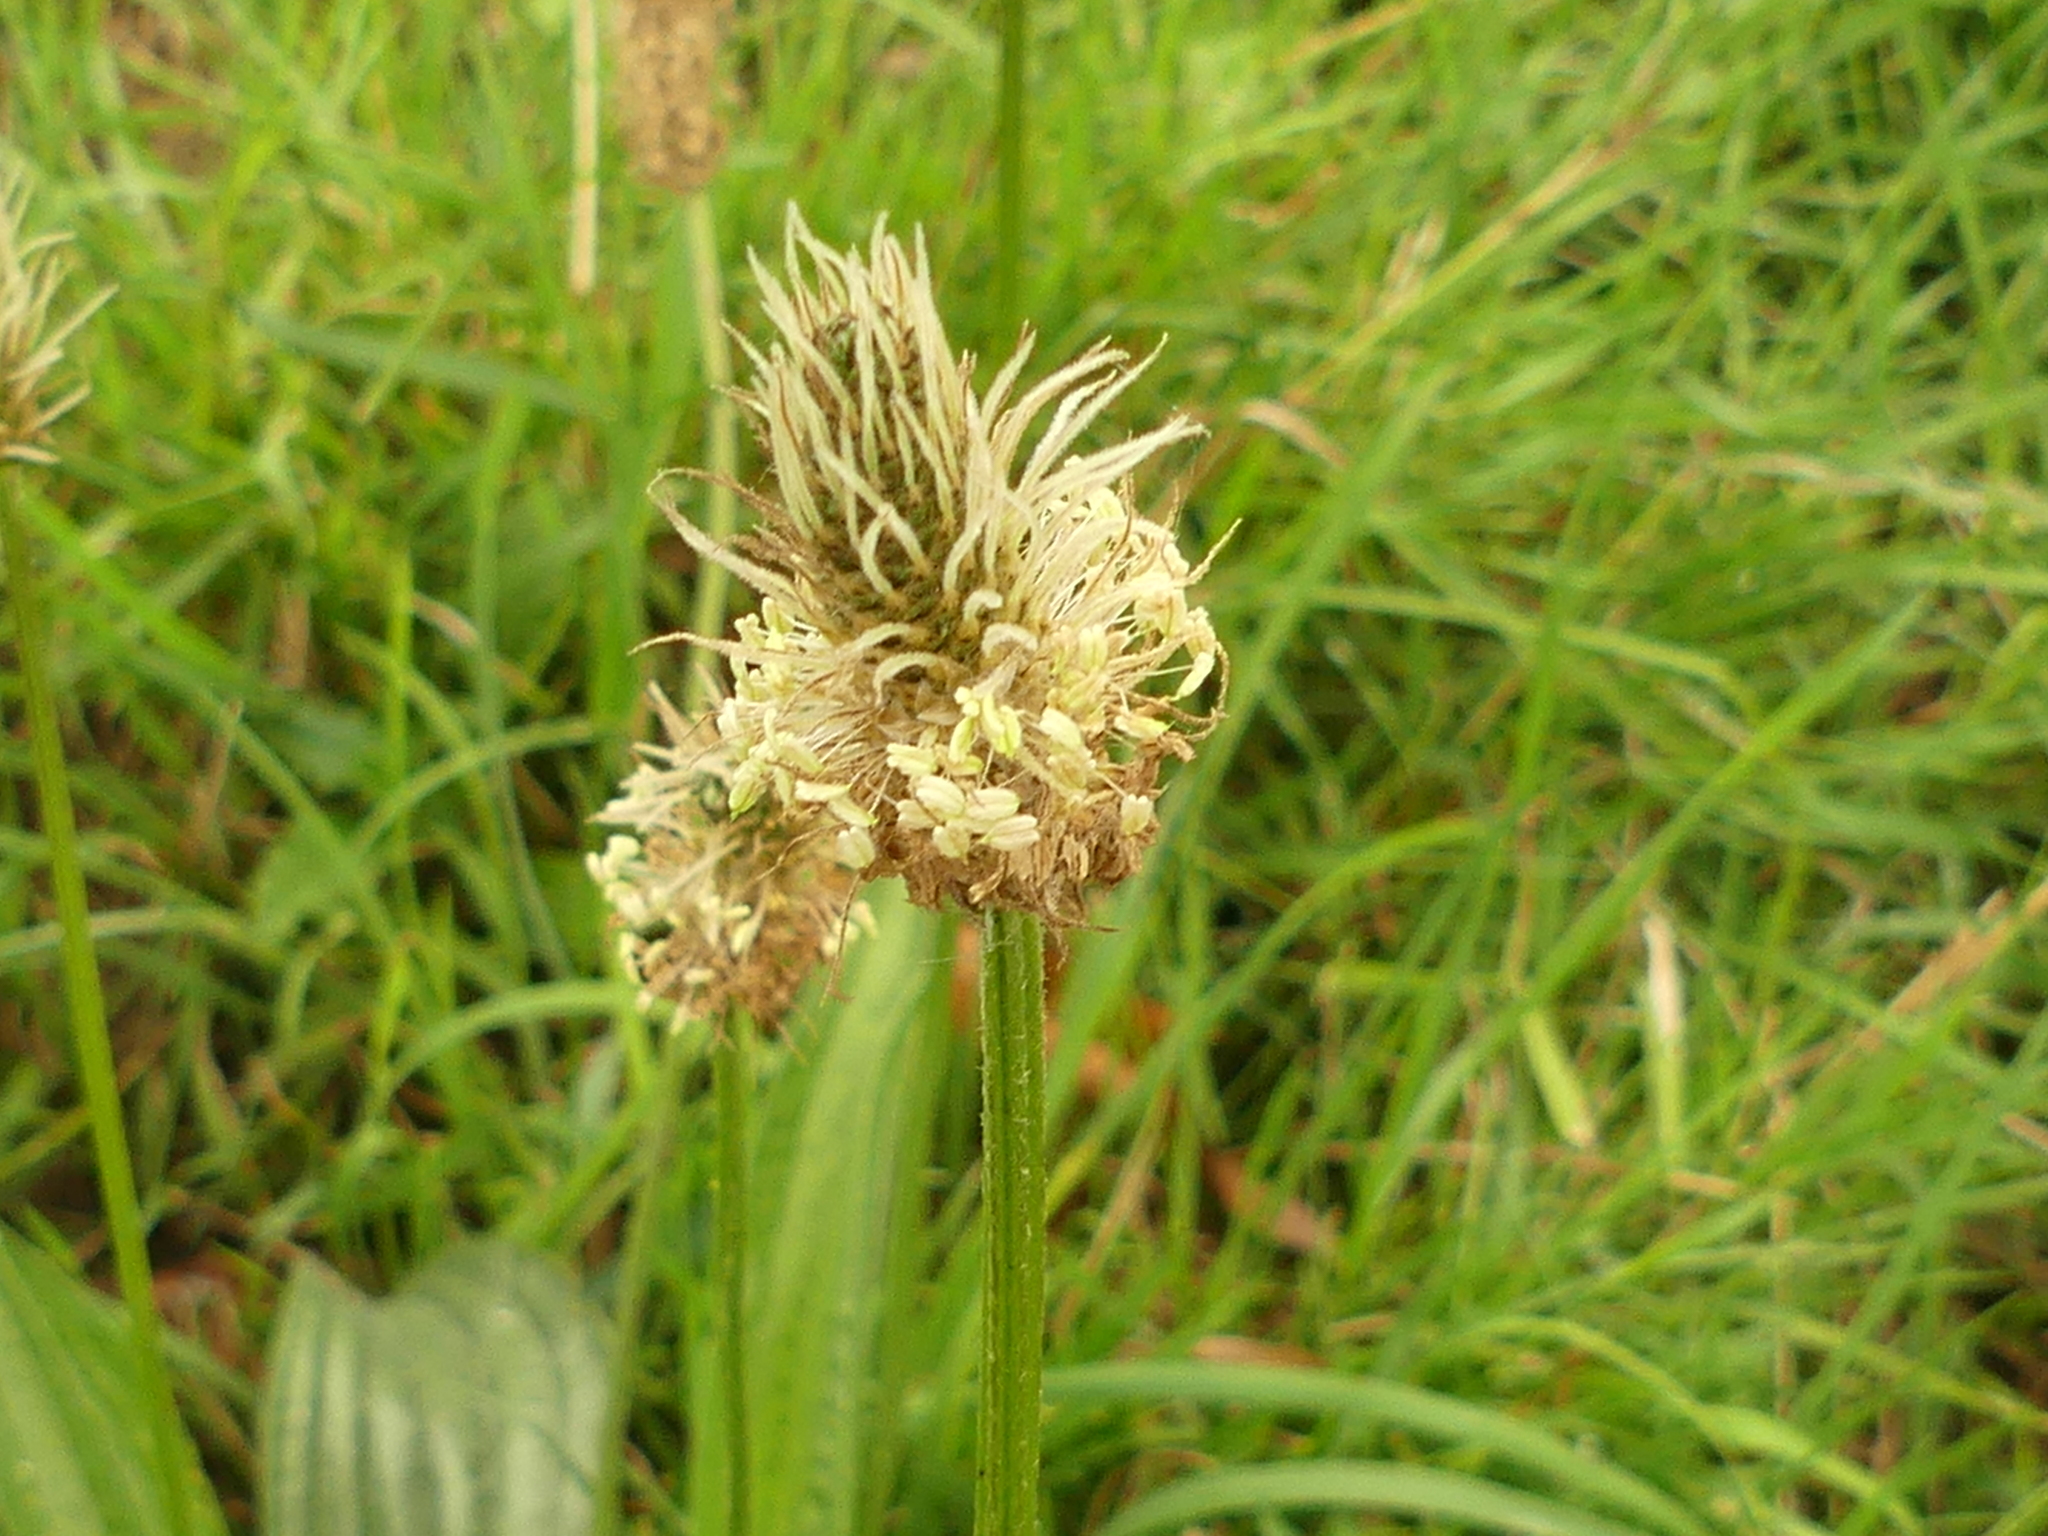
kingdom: Plantae
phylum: Tracheophyta
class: Magnoliopsida
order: Lamiales
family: Plantaginaceae
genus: Plantago
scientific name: Plantago lanceolata
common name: Ribwort plantain
